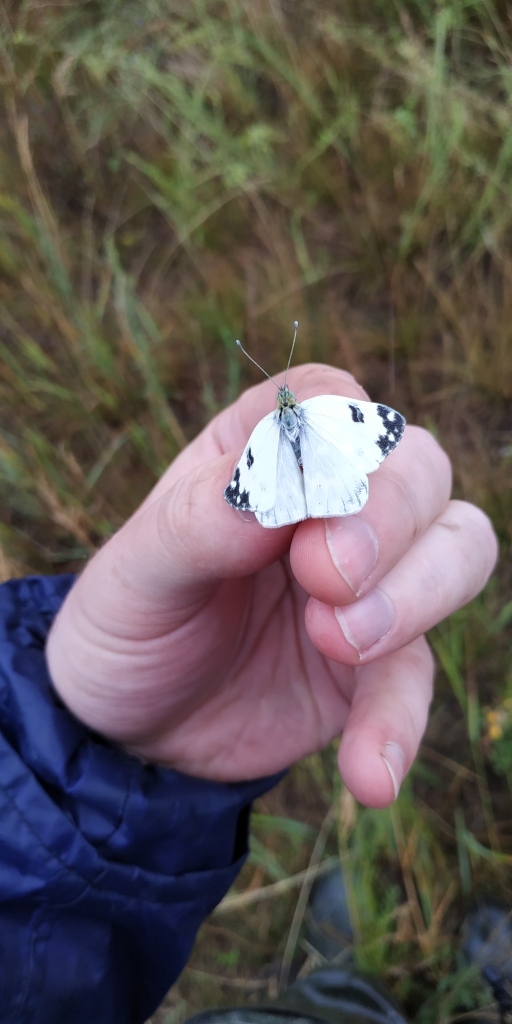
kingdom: Animalia
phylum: Arthropoda
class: Insecta
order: Lepidoptera
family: Pieridae
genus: Pontia
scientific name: Pontia edusa
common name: Eastern bath white
